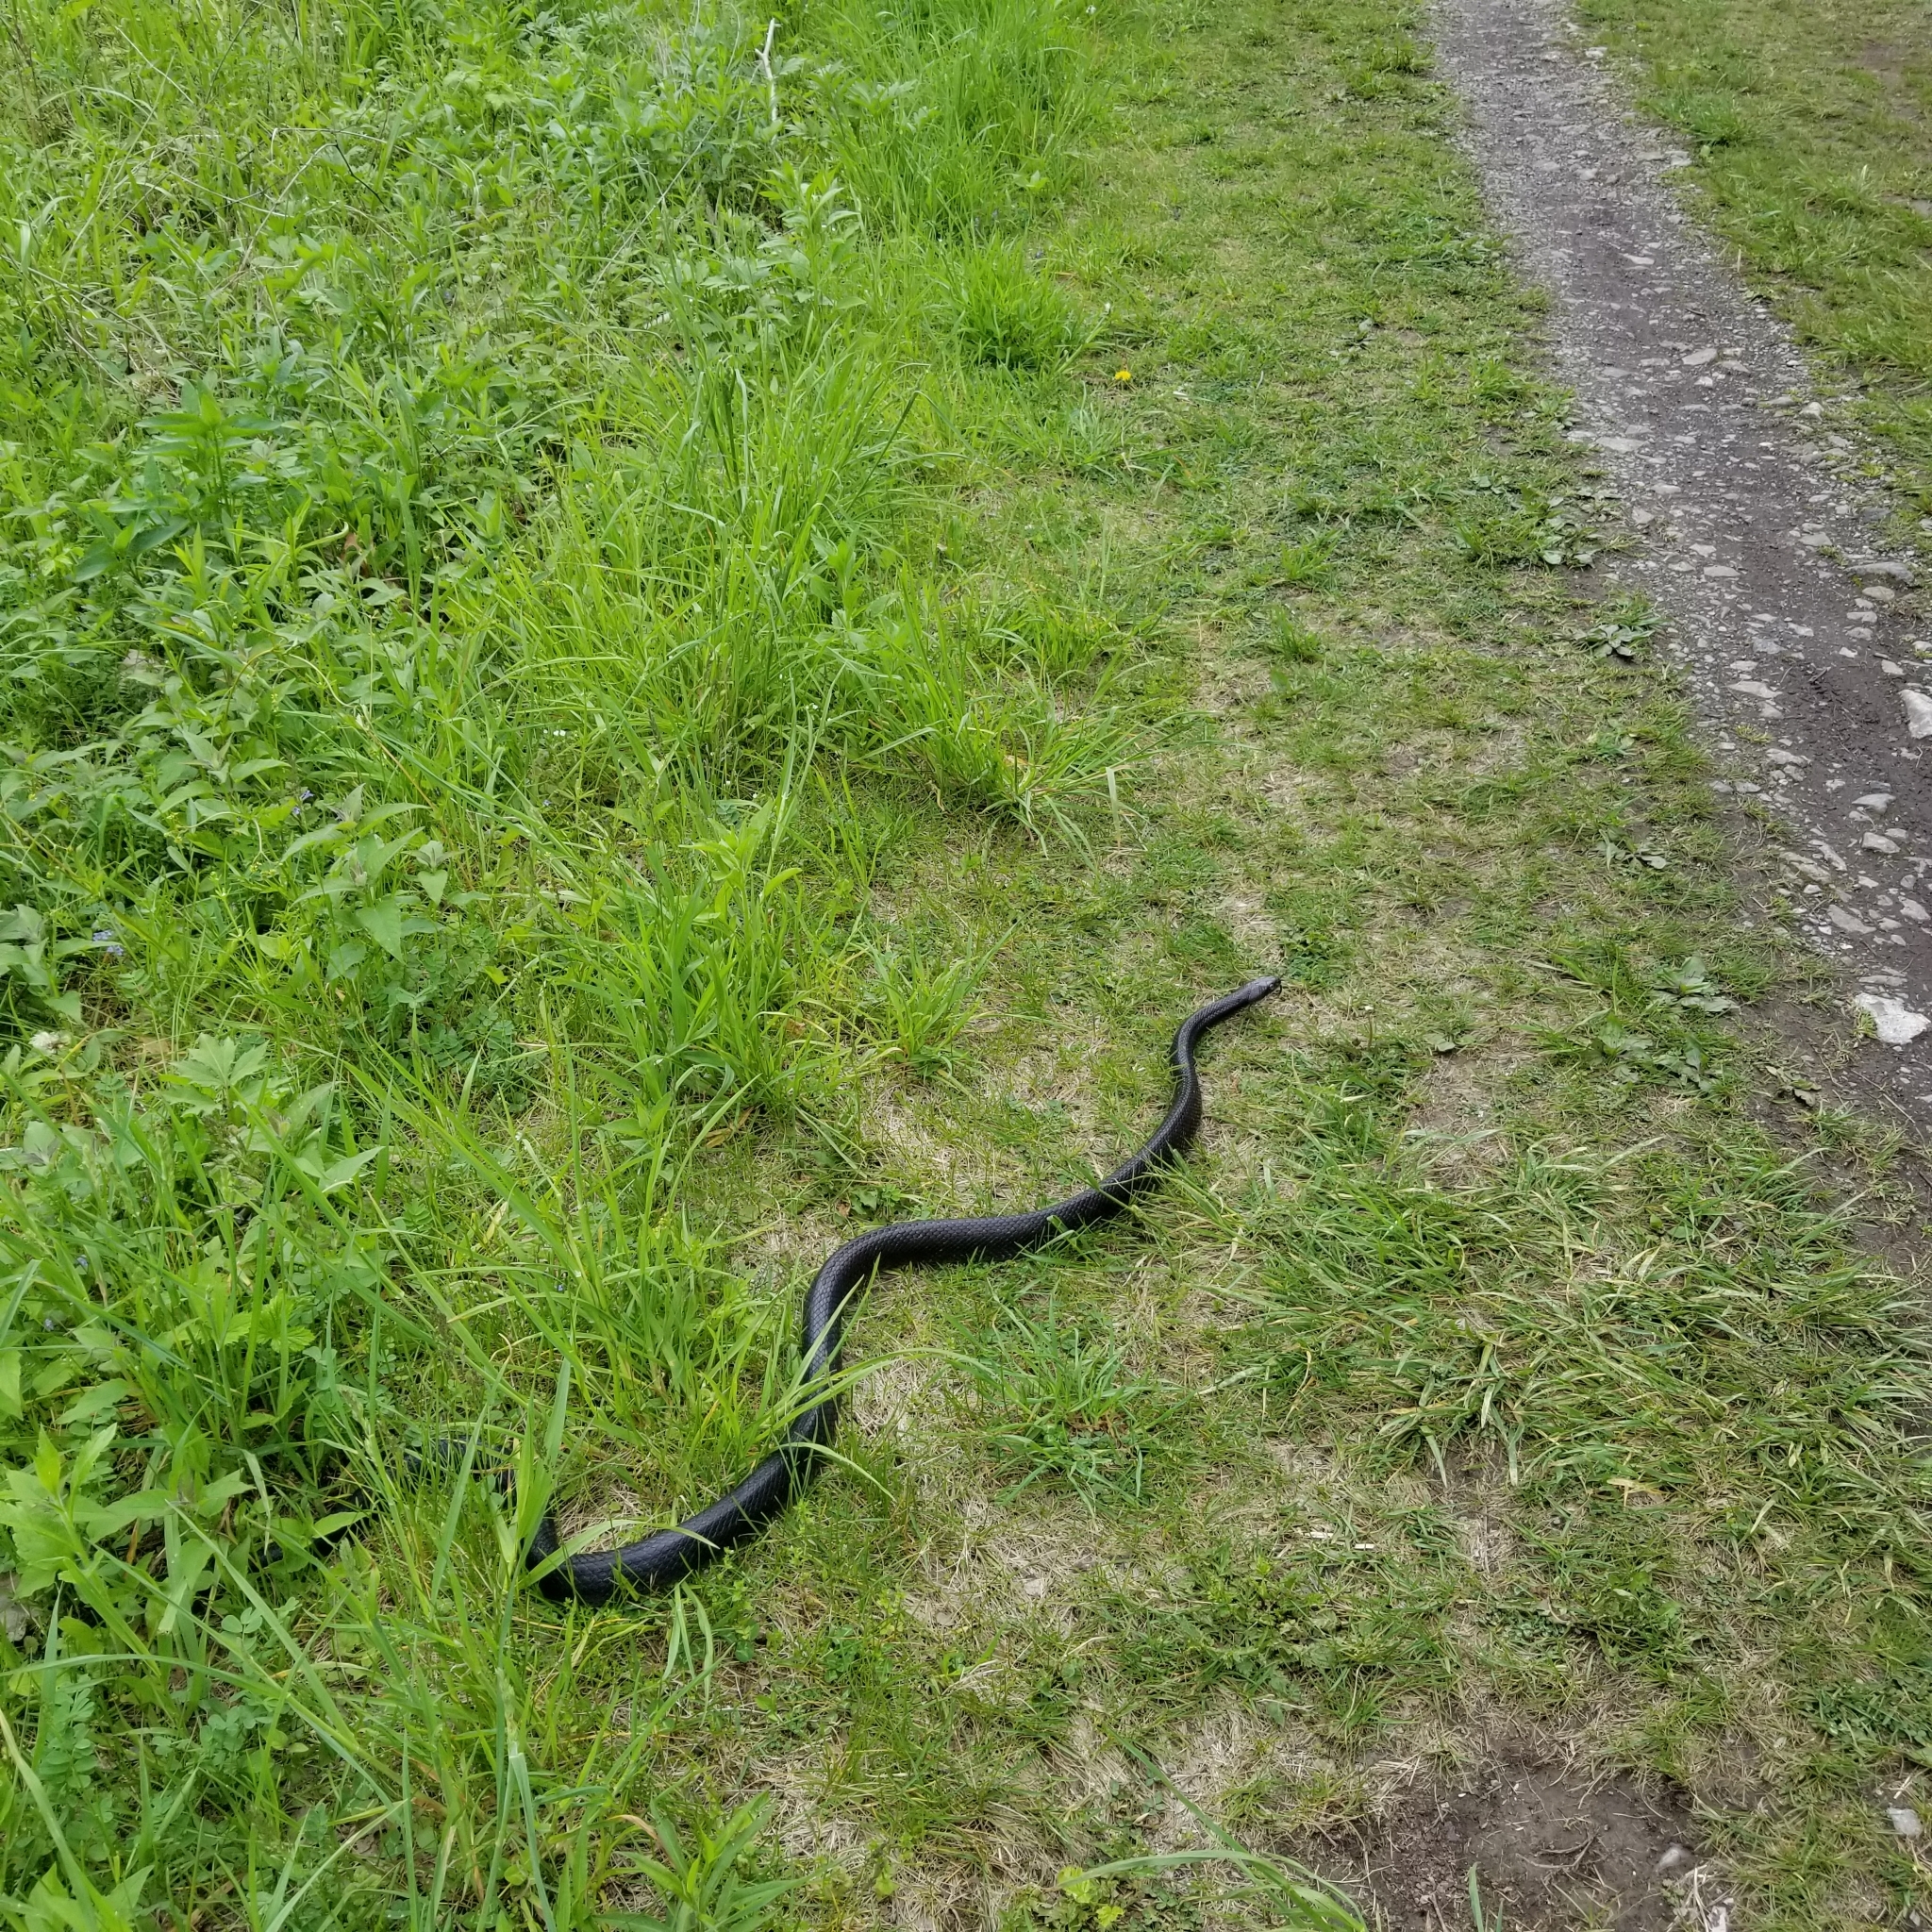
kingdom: Animalia
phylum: Chordata
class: Squamata
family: Colubridae
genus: Pantherophis
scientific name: Pantherophis alleghaniensis
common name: Eastern rat snake
